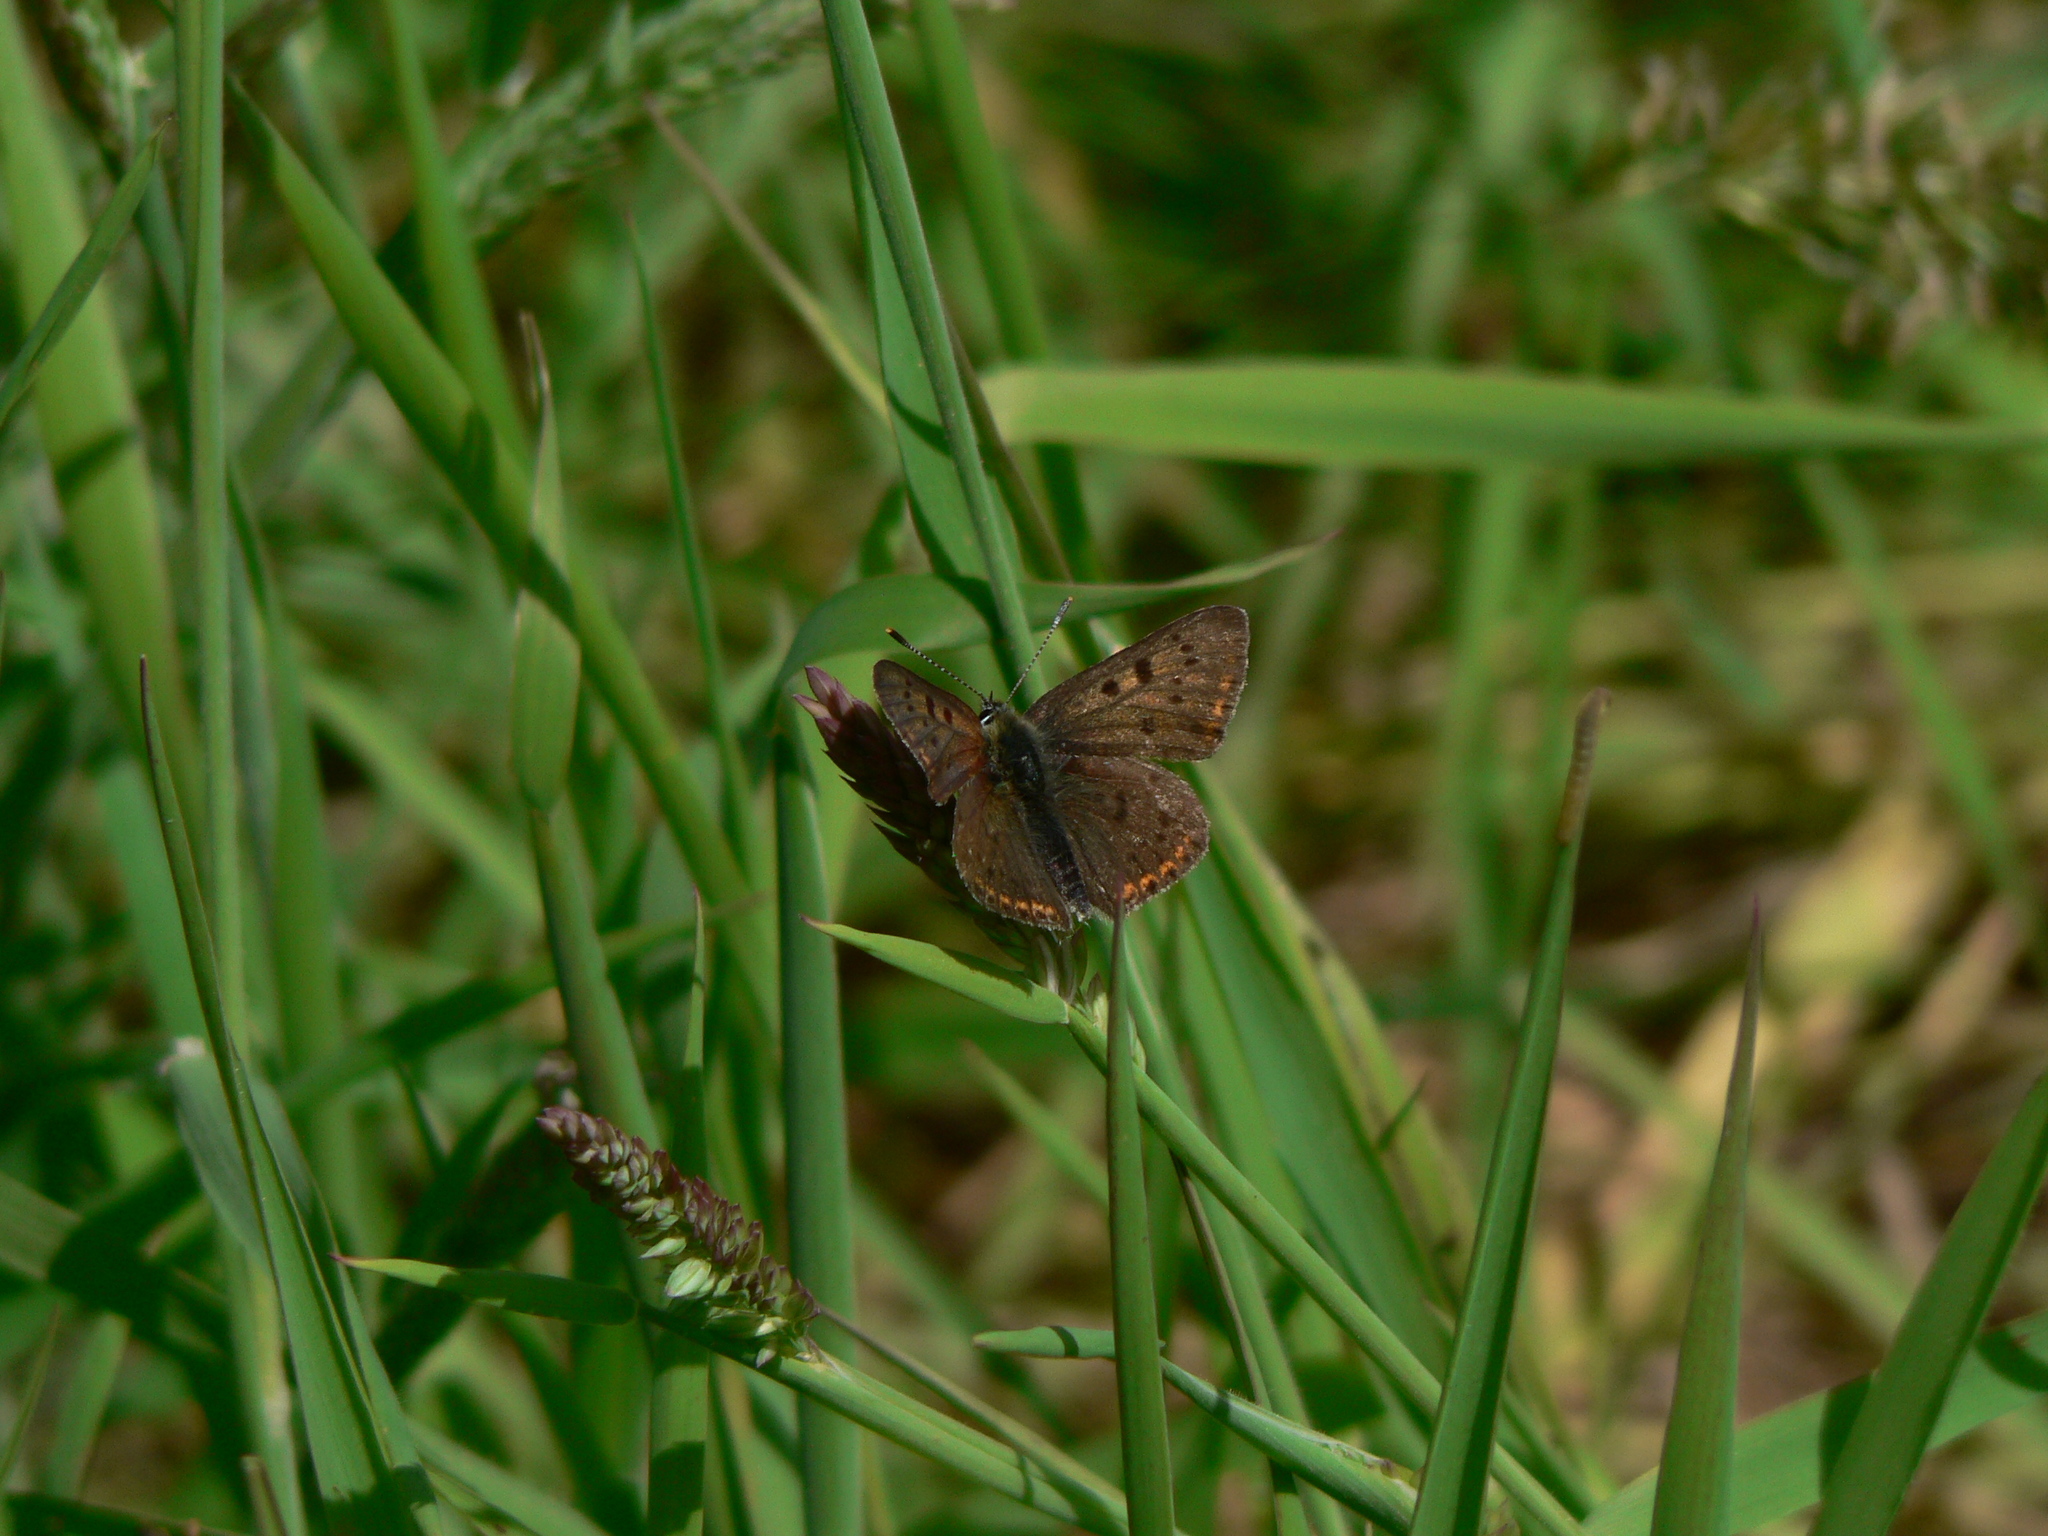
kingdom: Animalia
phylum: Arthropoda
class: Insecta
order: Lepidoptera
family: Lycaenidae
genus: Loweia
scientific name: Loweia tityrus
